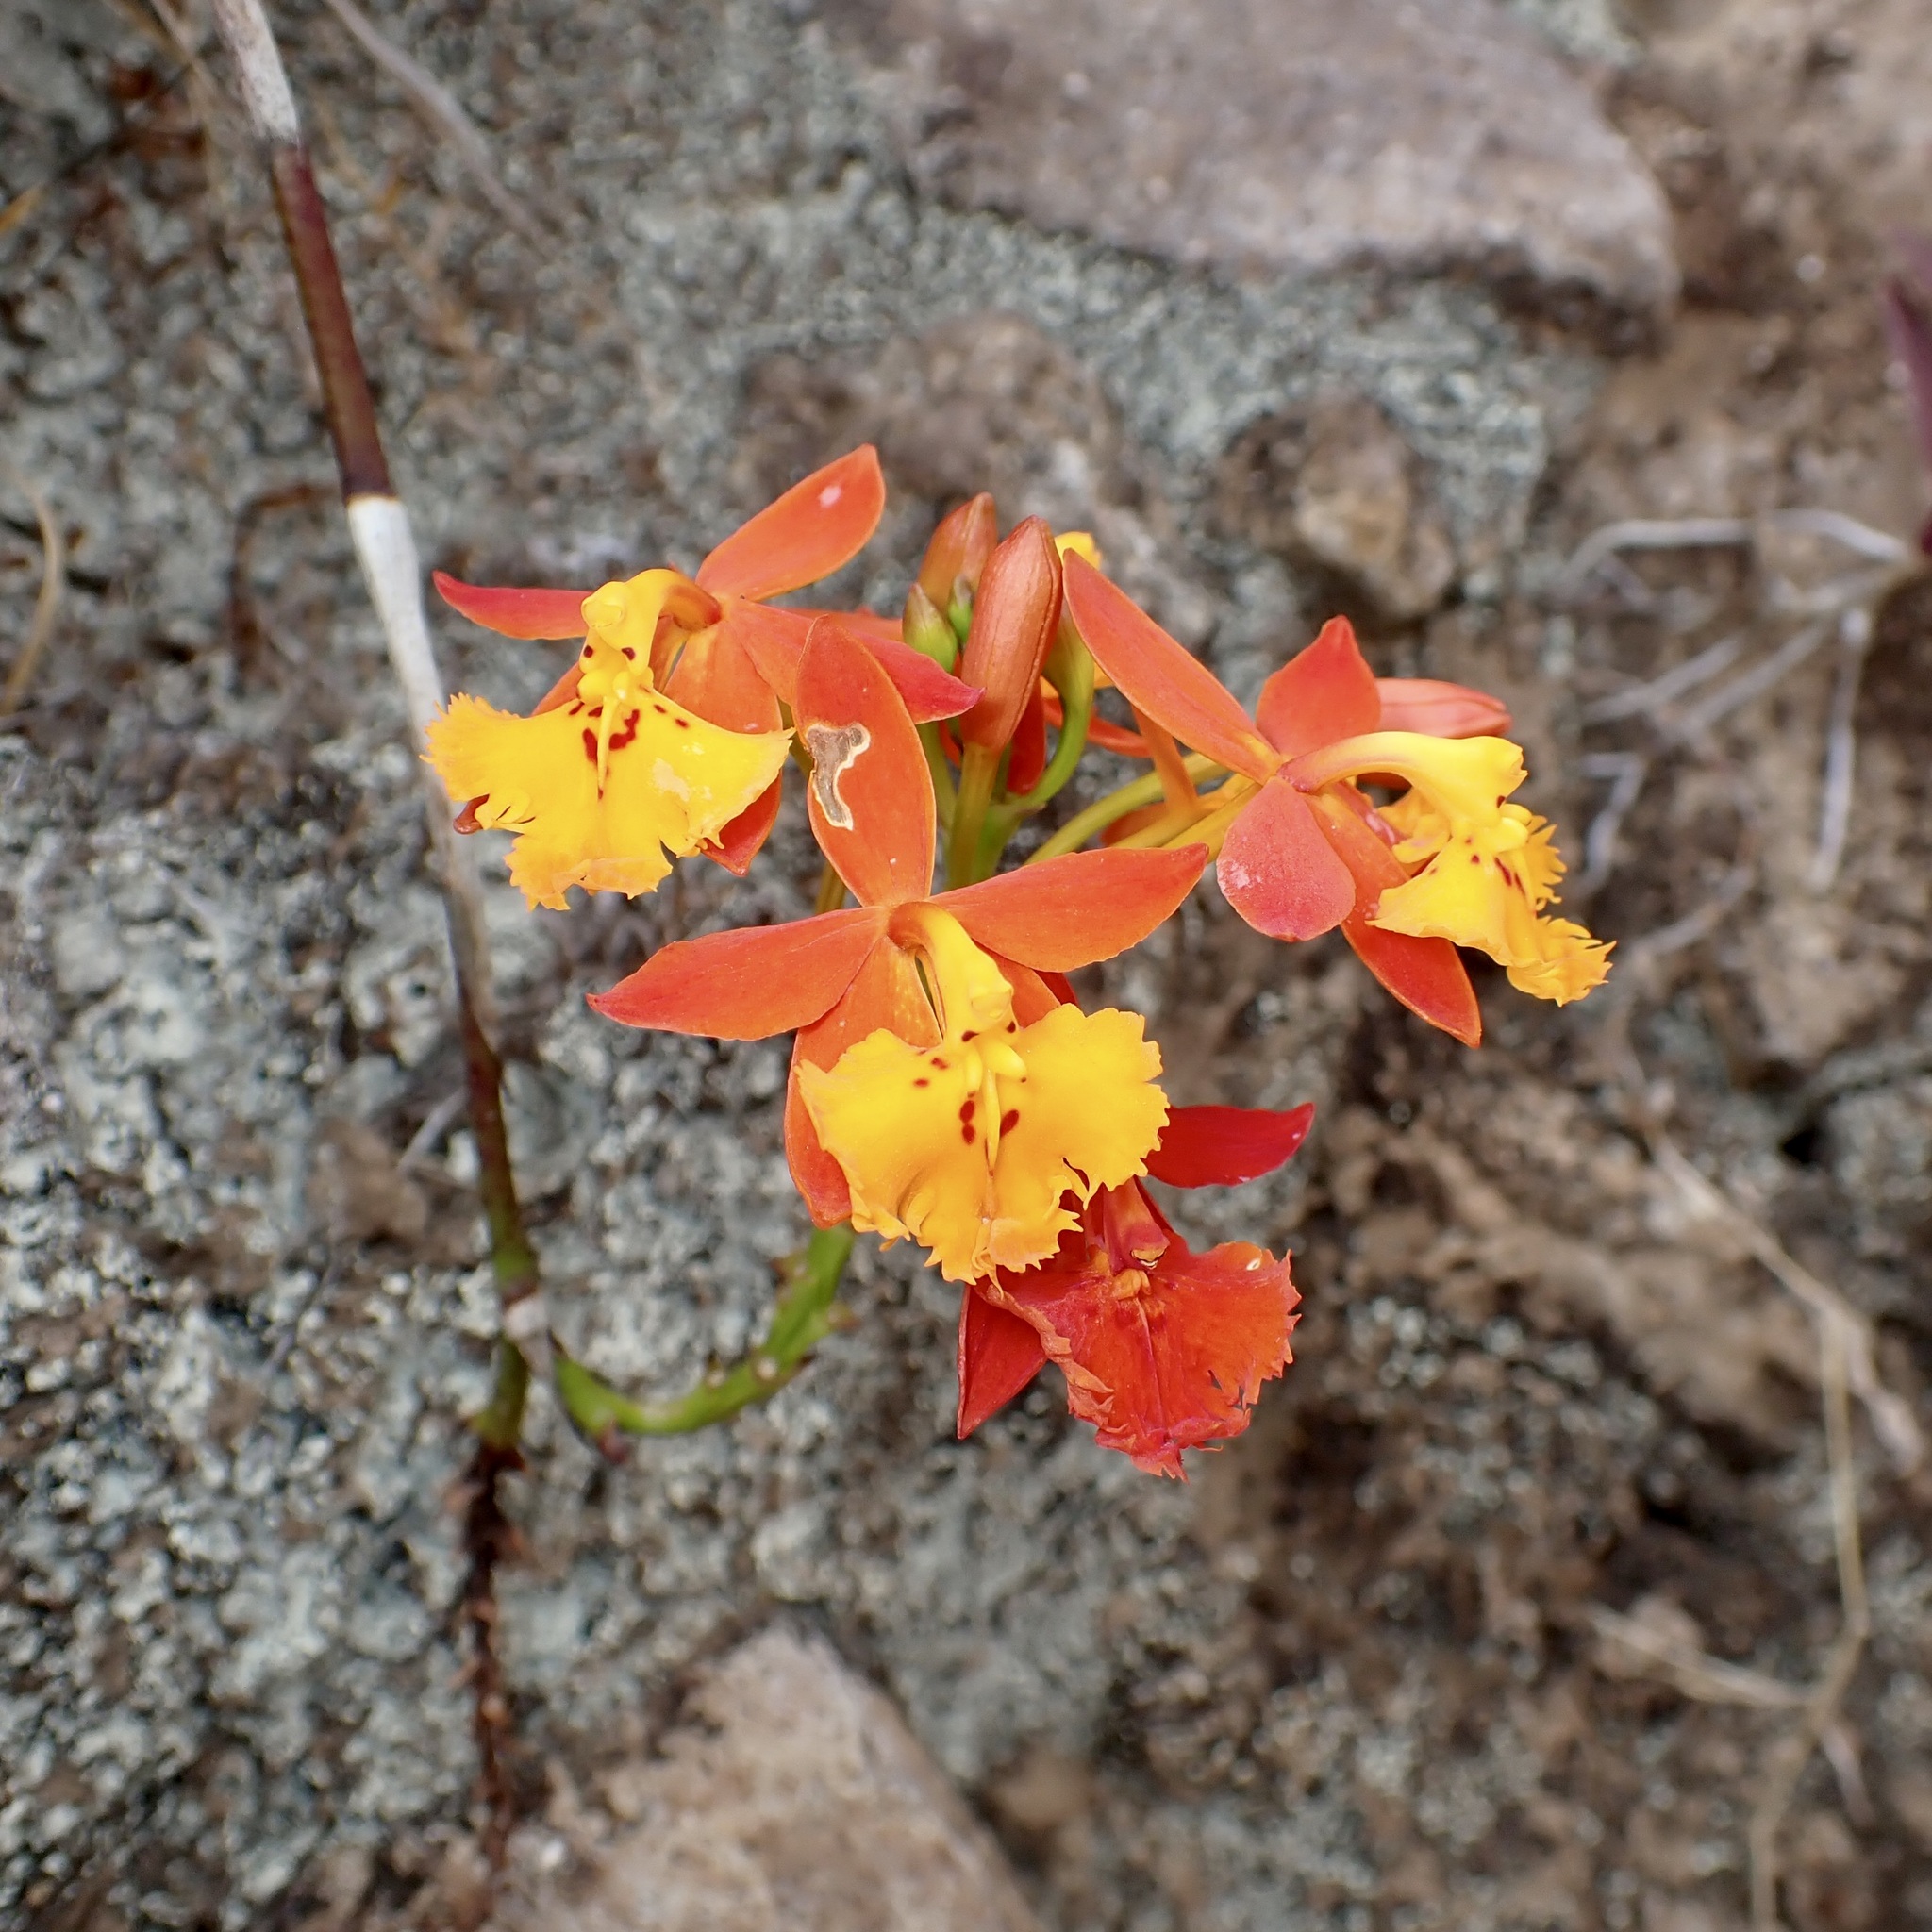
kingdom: Plantae
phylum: Tracheophyta
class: Liliopsida
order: Asparagales
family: Orchidaceae
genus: Epidendrum
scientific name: Epidendrum radicans
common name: Fire star orchid
